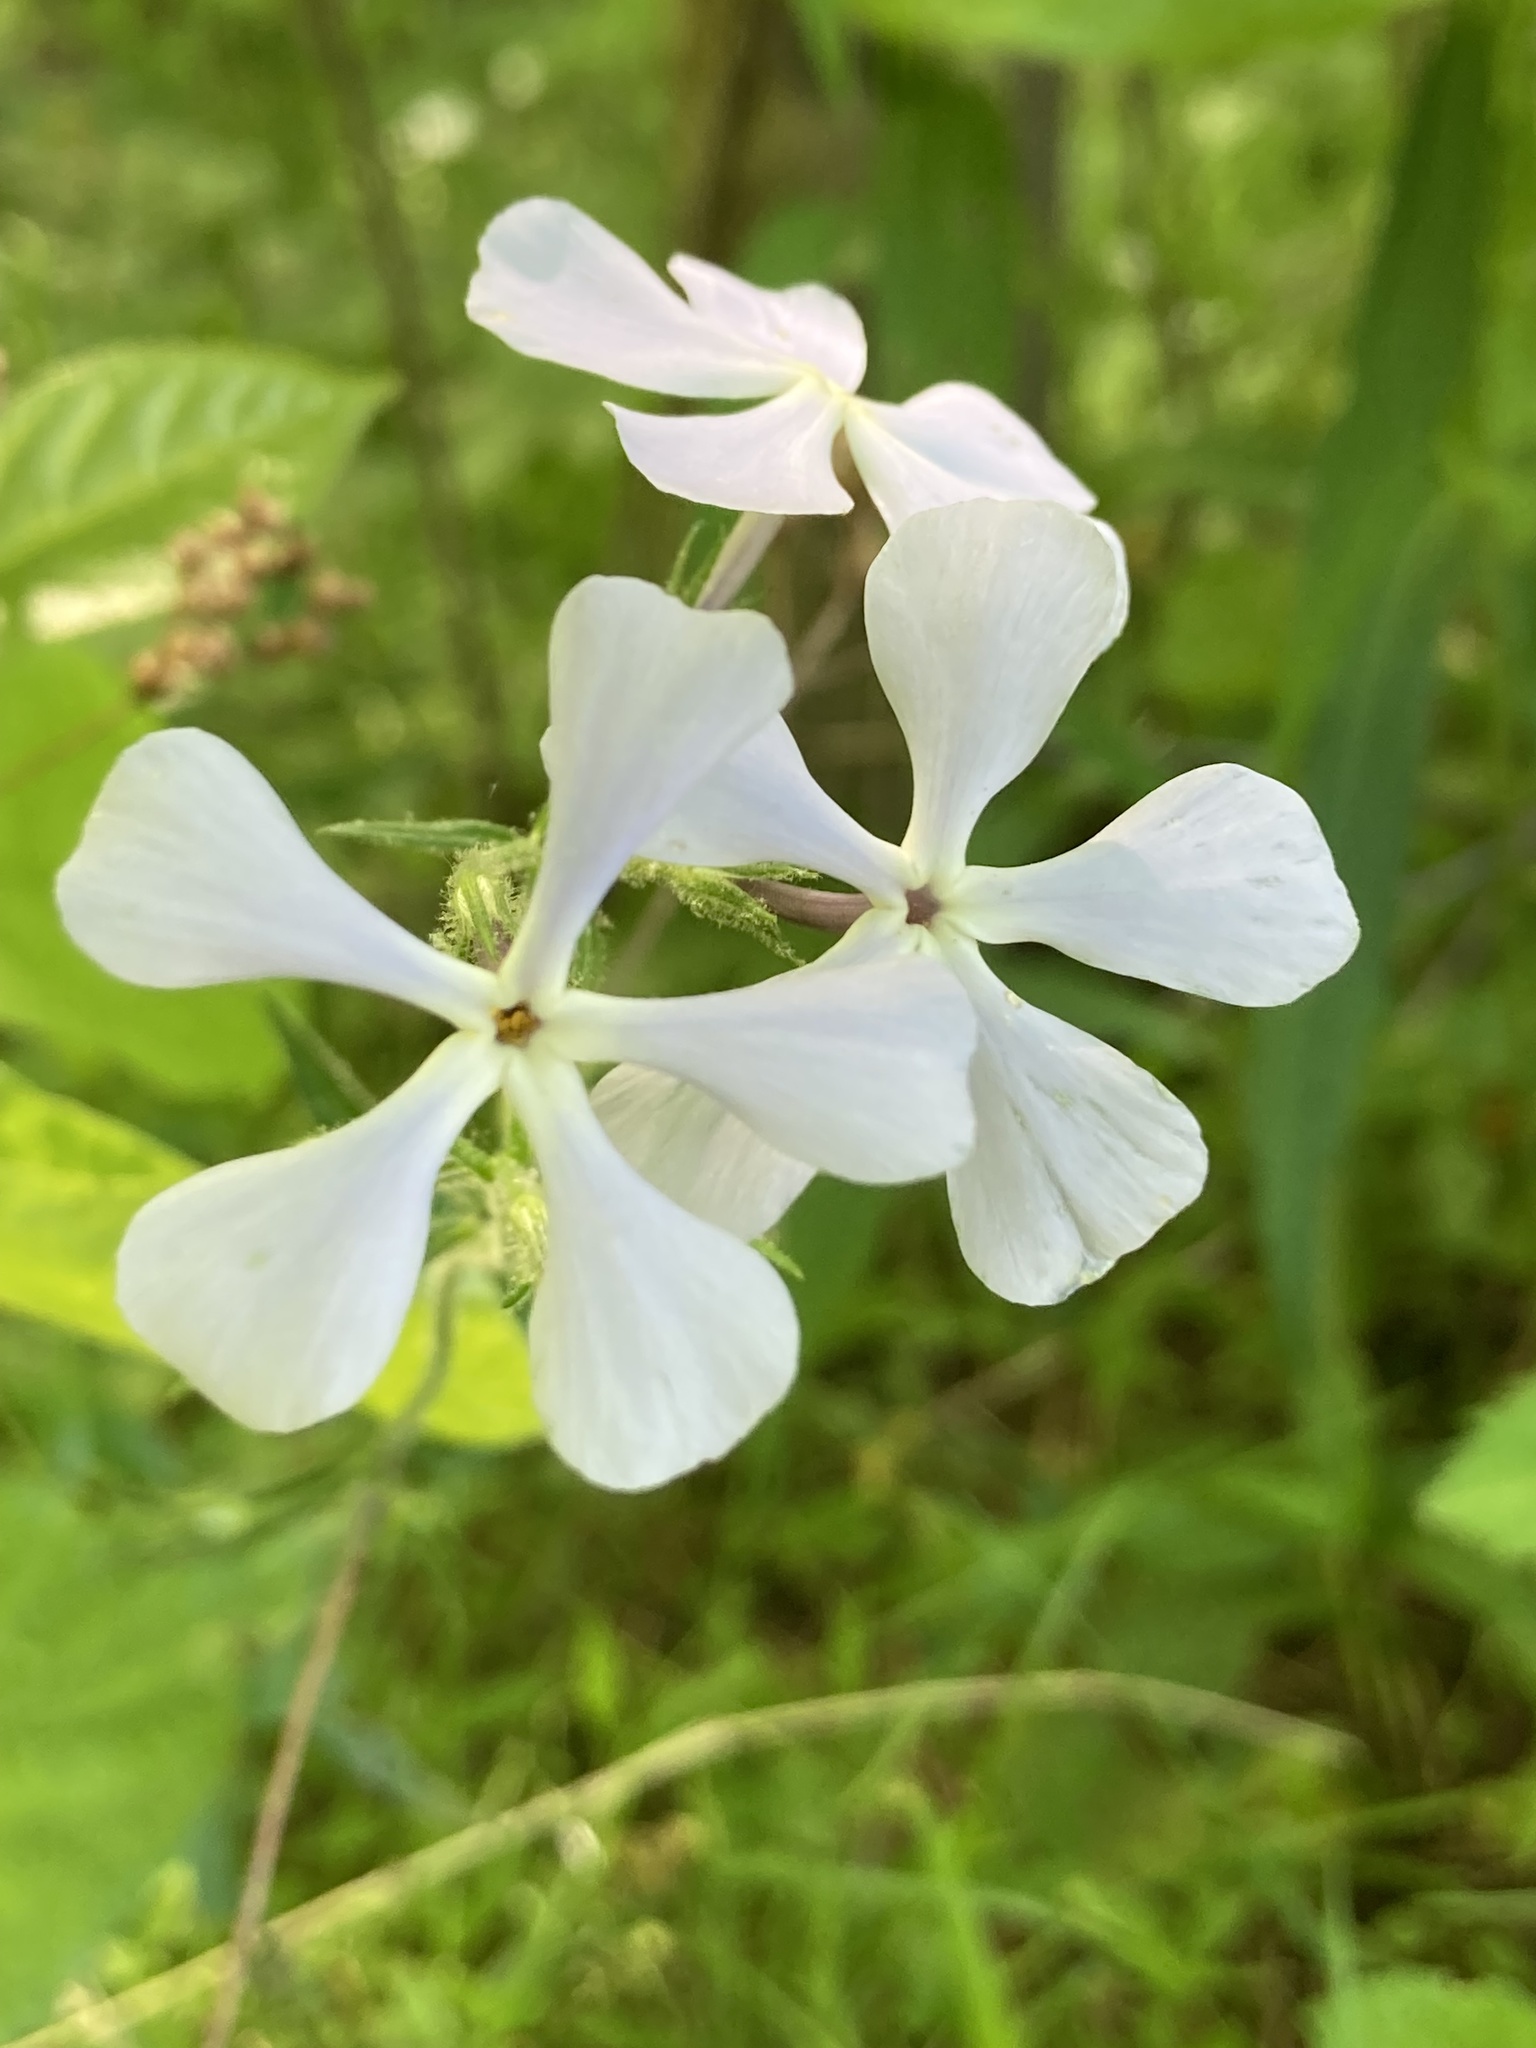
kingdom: Plantae
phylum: Tracheophyta
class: Magnoliopsida
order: Ericales
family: Polemoniaceae
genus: Phlox
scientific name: Phlox divaricata
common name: Blue phlox
